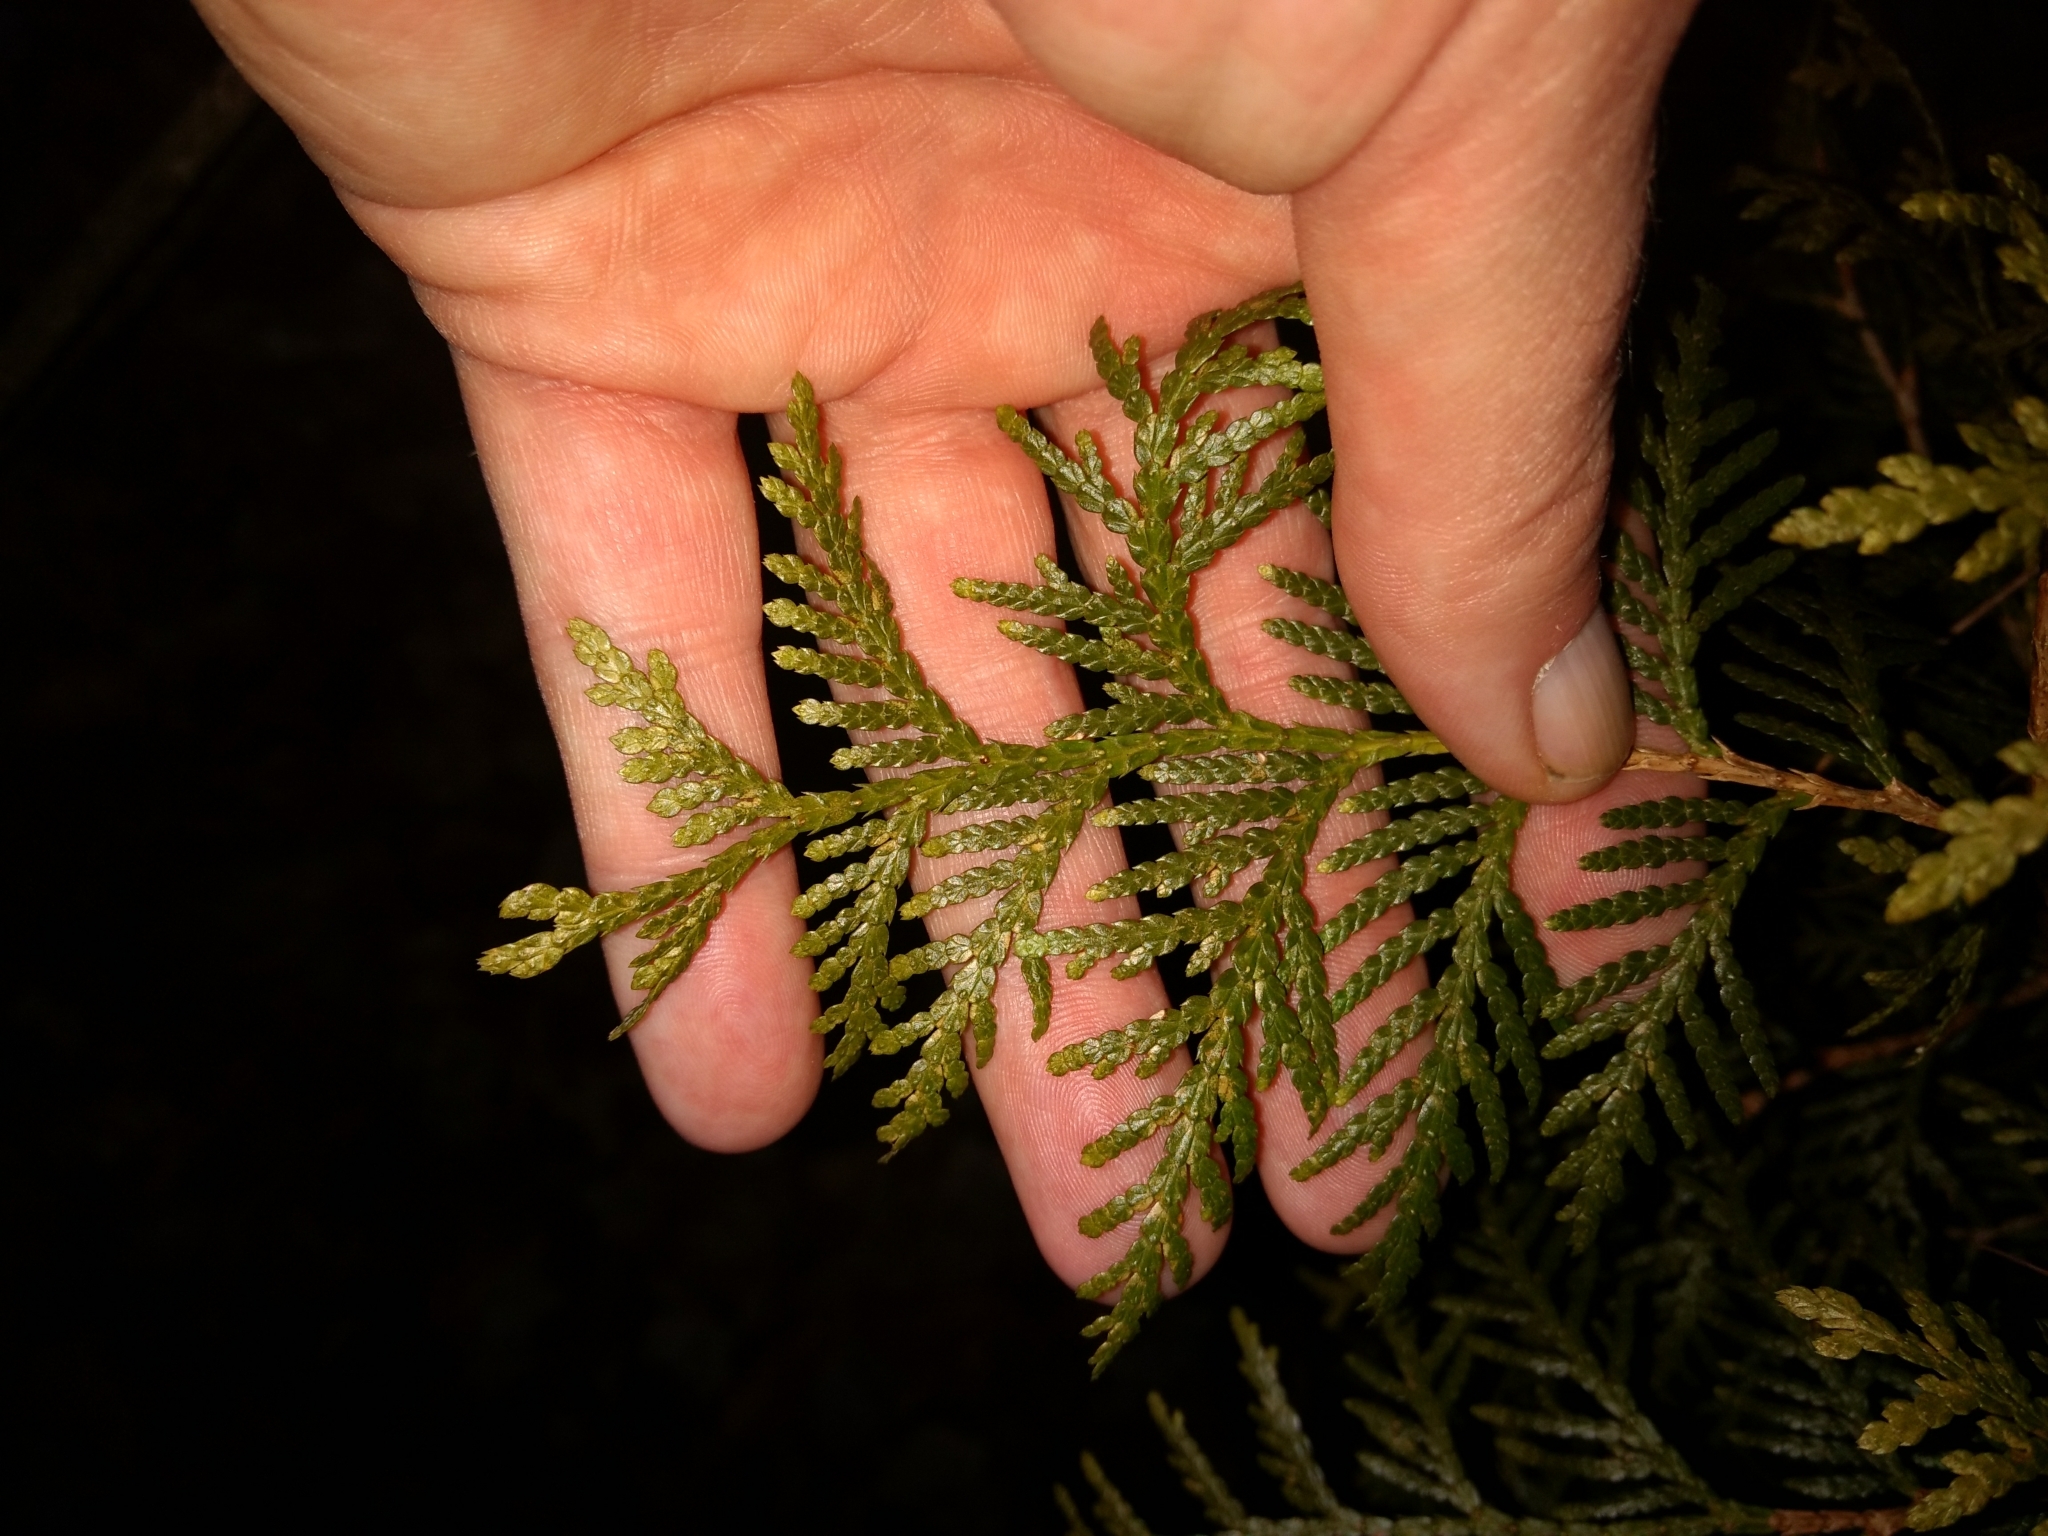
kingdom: Plantae
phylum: Tracheophyta
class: Pinopsida
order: Pinales
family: Cupressaceae
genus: Thuja
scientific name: Thuja occidentalis
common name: Northern white-cedar
